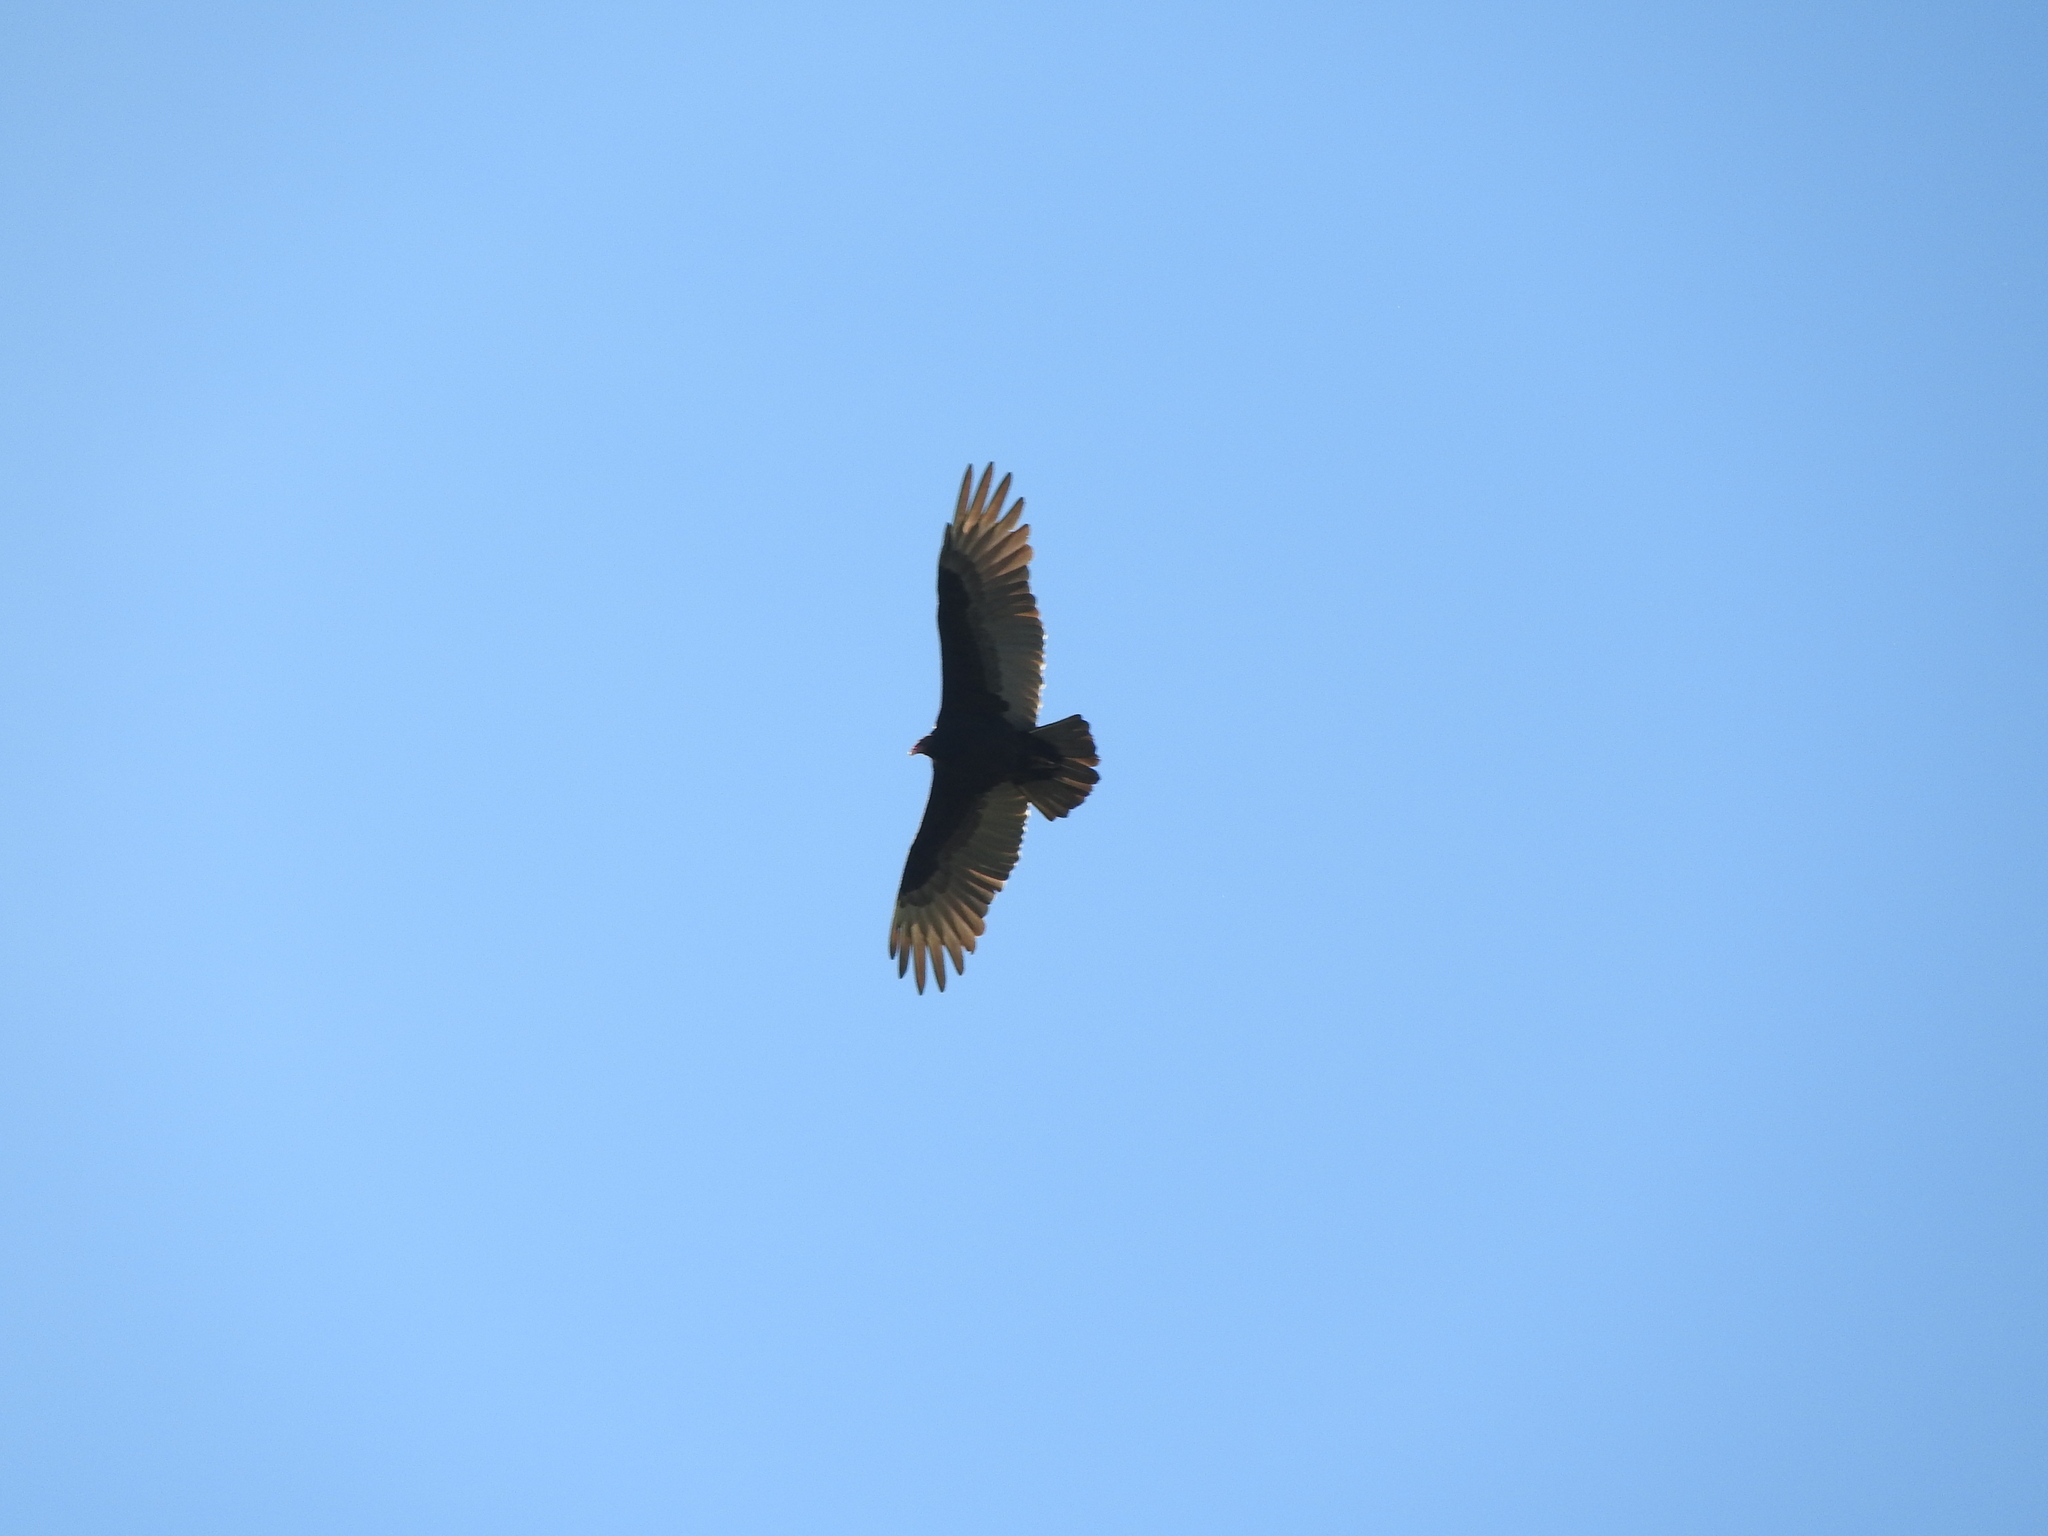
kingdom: Animalia
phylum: Chordata
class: Aves
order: Accipitriformes
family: Cathartidae
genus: Cathartes
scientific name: Cathartes aura
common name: Turkey vulture
